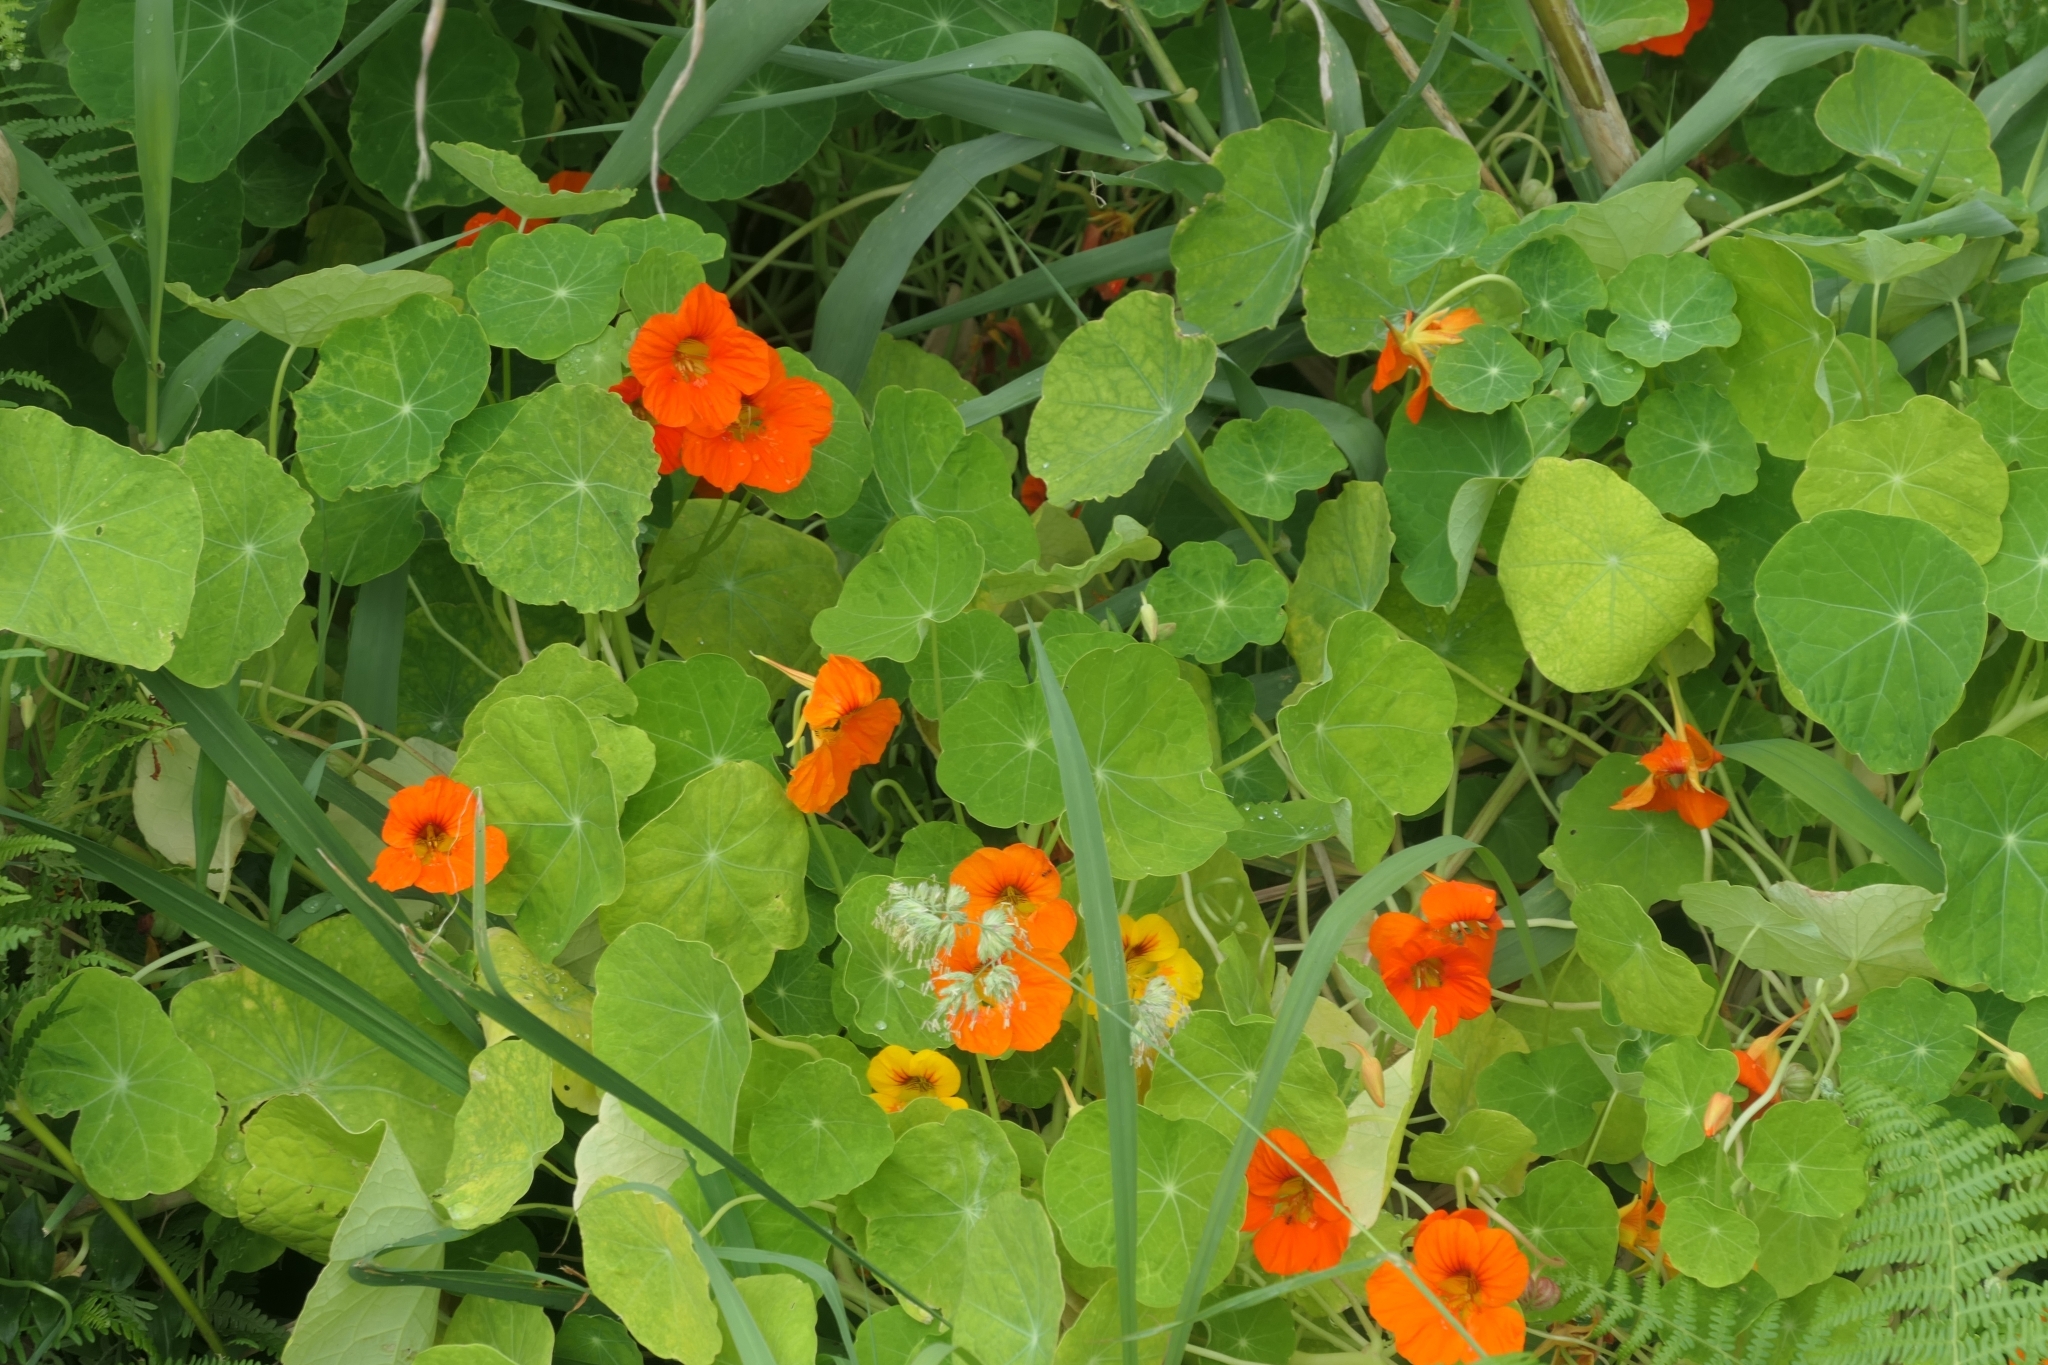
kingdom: Plantae
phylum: Tracheophyta
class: Magnoliopsida
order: Brassicales
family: Tropaeolaceae
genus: Tropaeolum
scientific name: Tropaeolum majus
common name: Nasturtium
